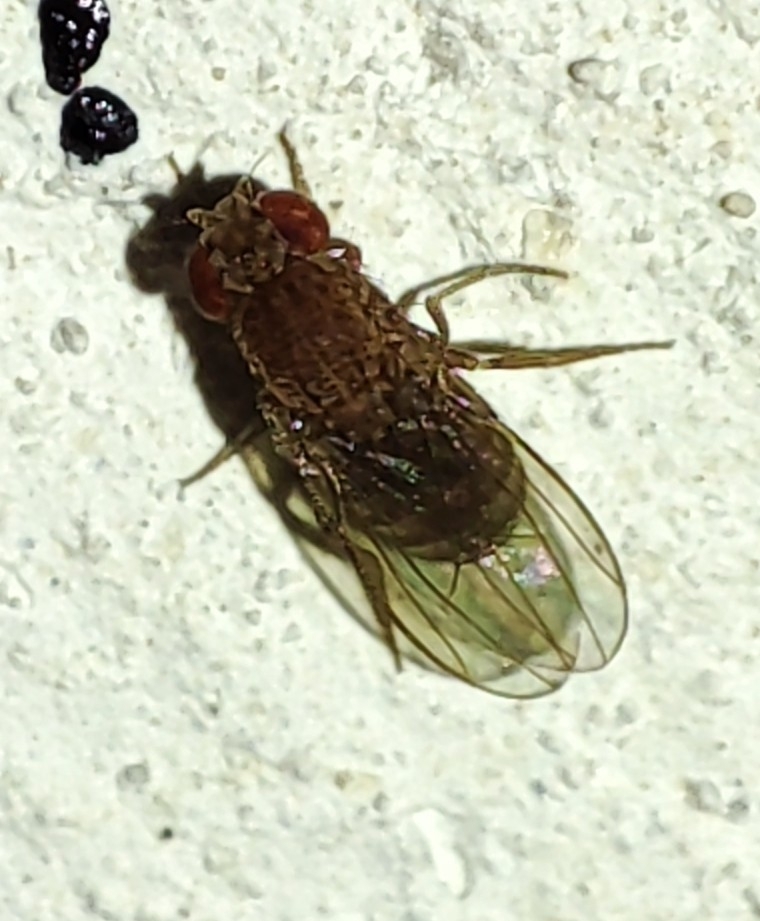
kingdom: Animalia
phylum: Arthropoda
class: Insecta
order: Diptera
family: Drosophilidae
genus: Drosophila
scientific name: Drosophila repleta
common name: Pomace fly
